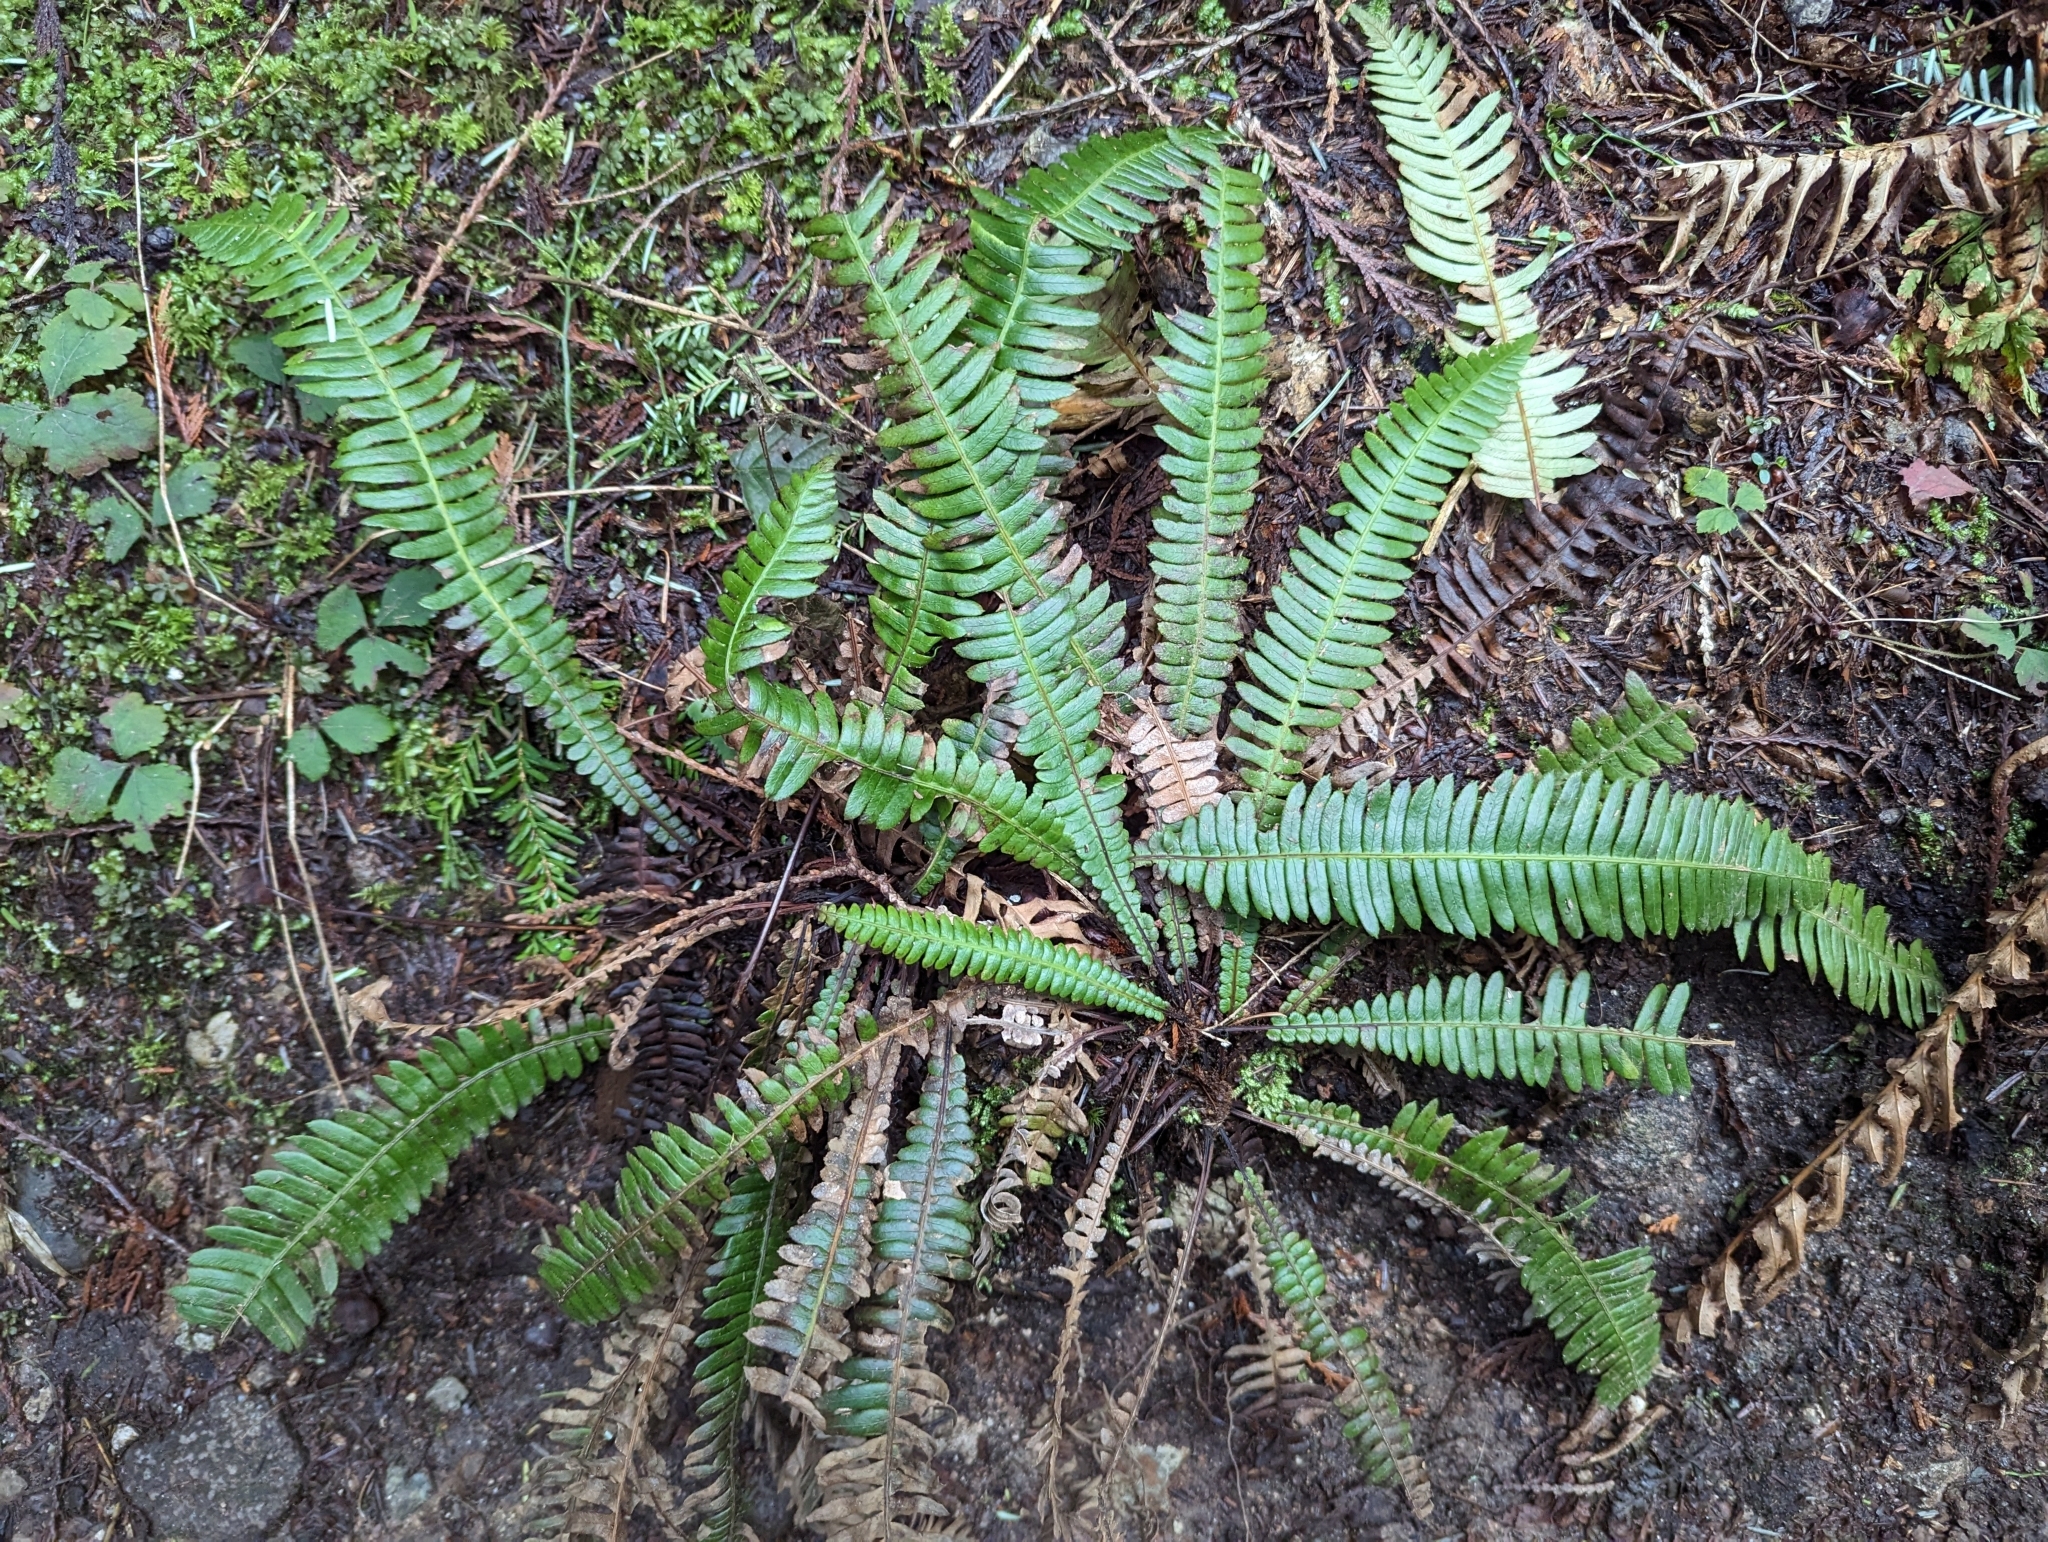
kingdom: Plantae
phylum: Tracheophyta
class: Polypodiopsida
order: Polypodiales
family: Blechnaceae
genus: Struthiopteris
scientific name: Struthiopteris spicant
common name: Deer fern
